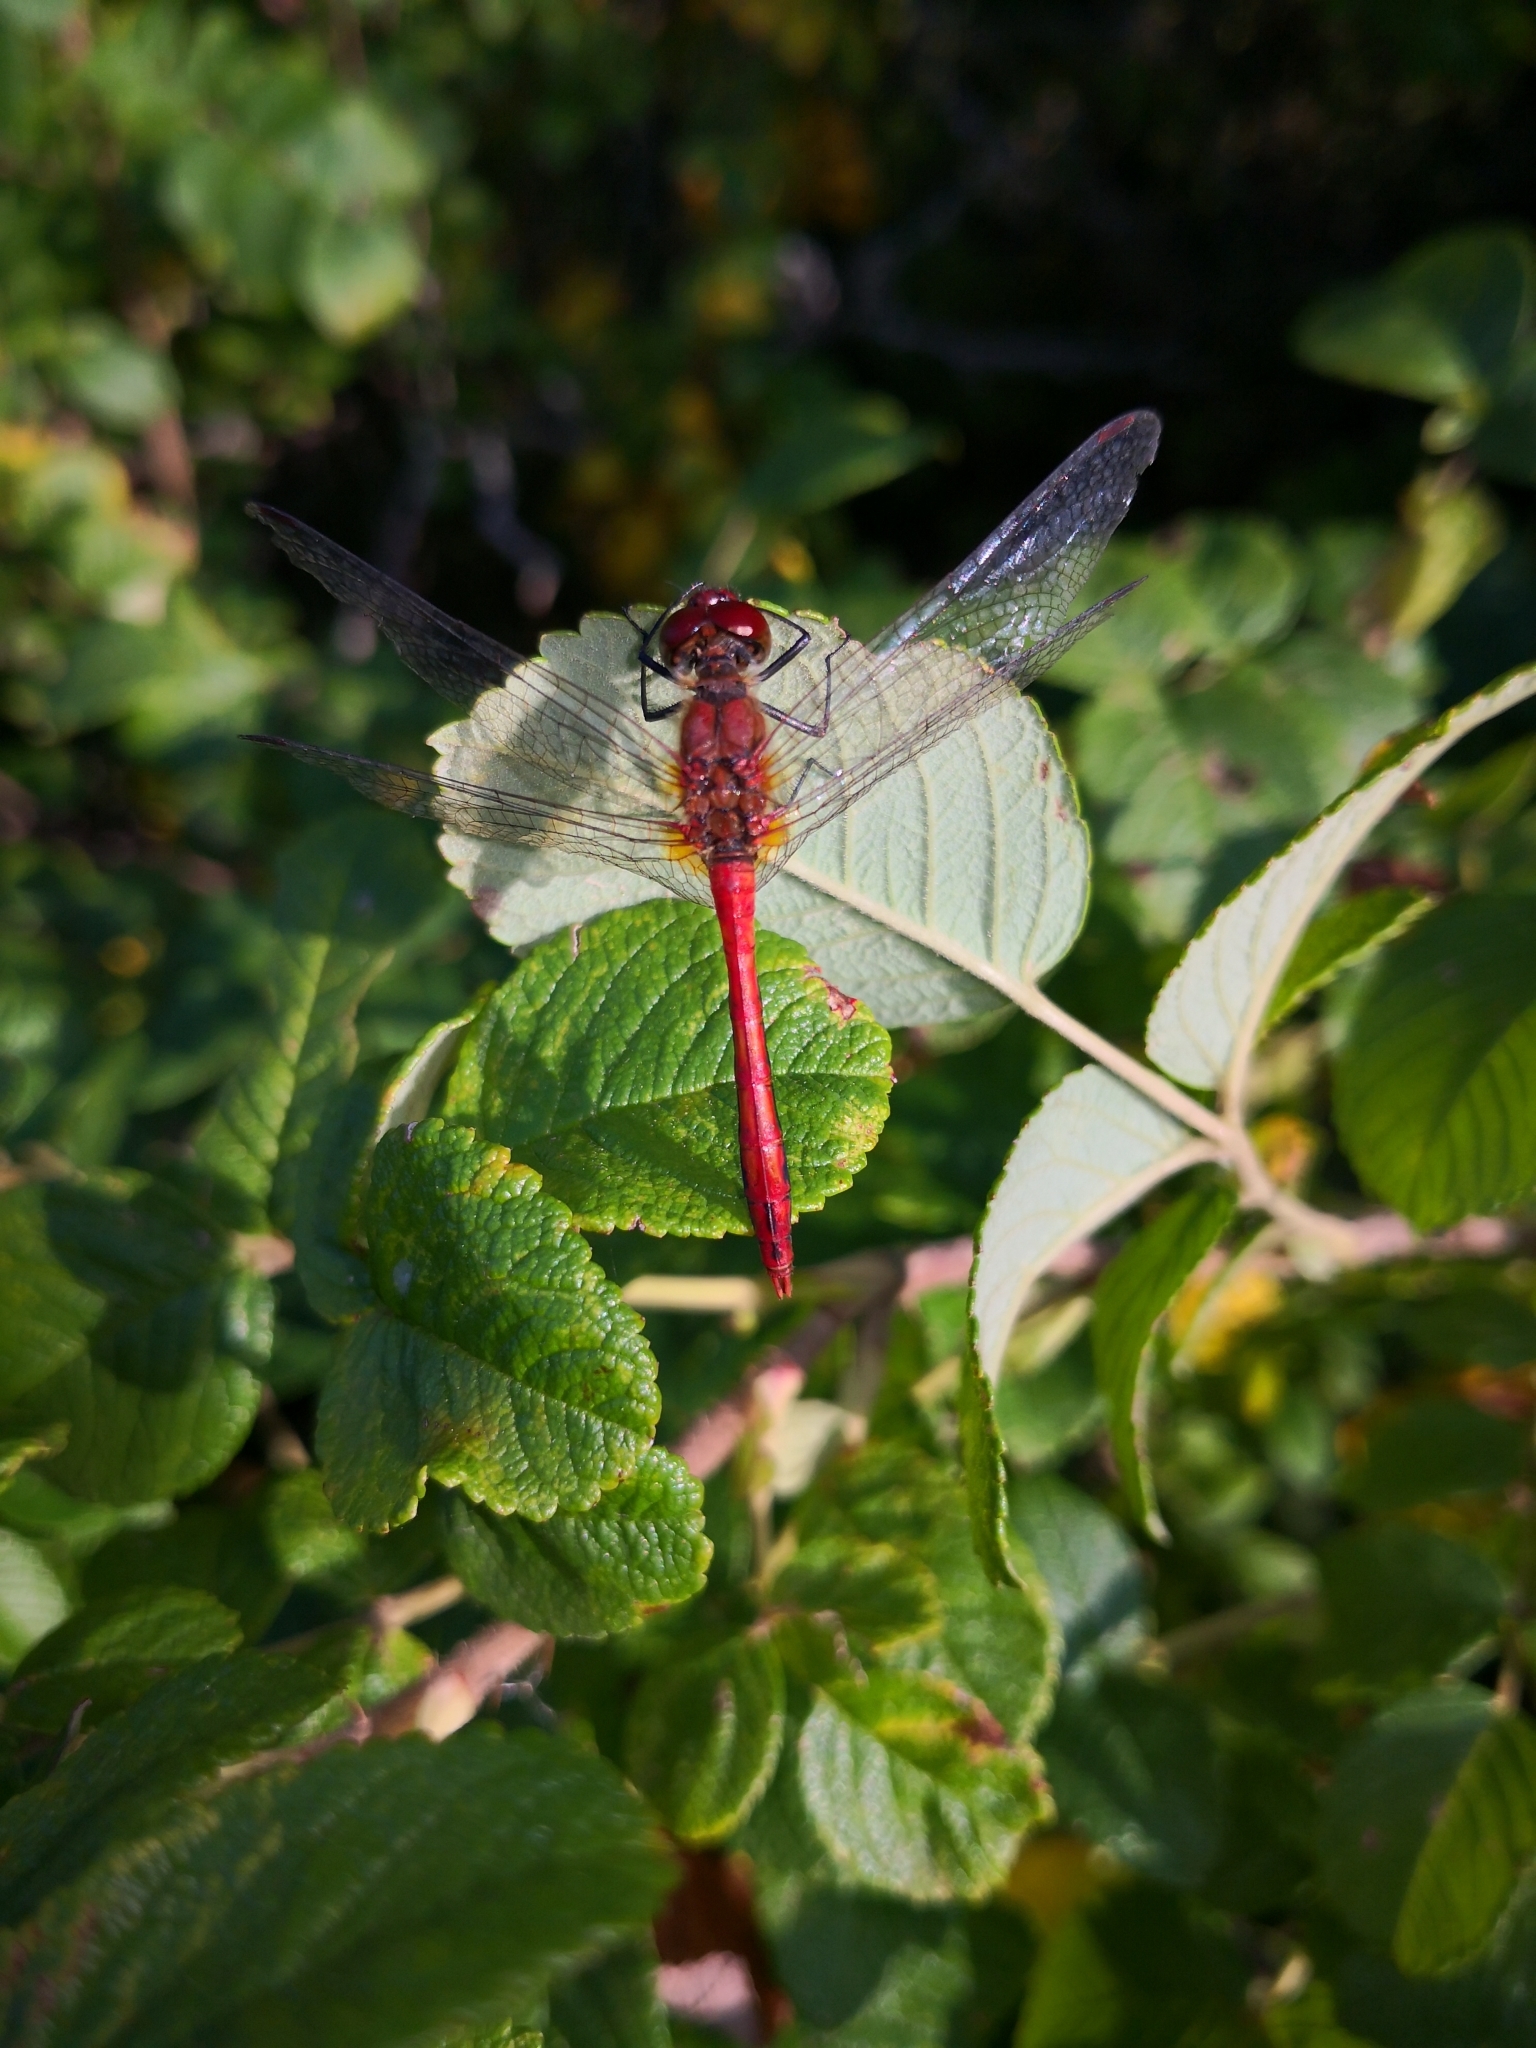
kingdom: Animalia
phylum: Arthropoda
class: Insecta
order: Odonata
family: Libellulidae
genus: Sympetrum
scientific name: Sympetrum sanguineum
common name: Ruddy darter
